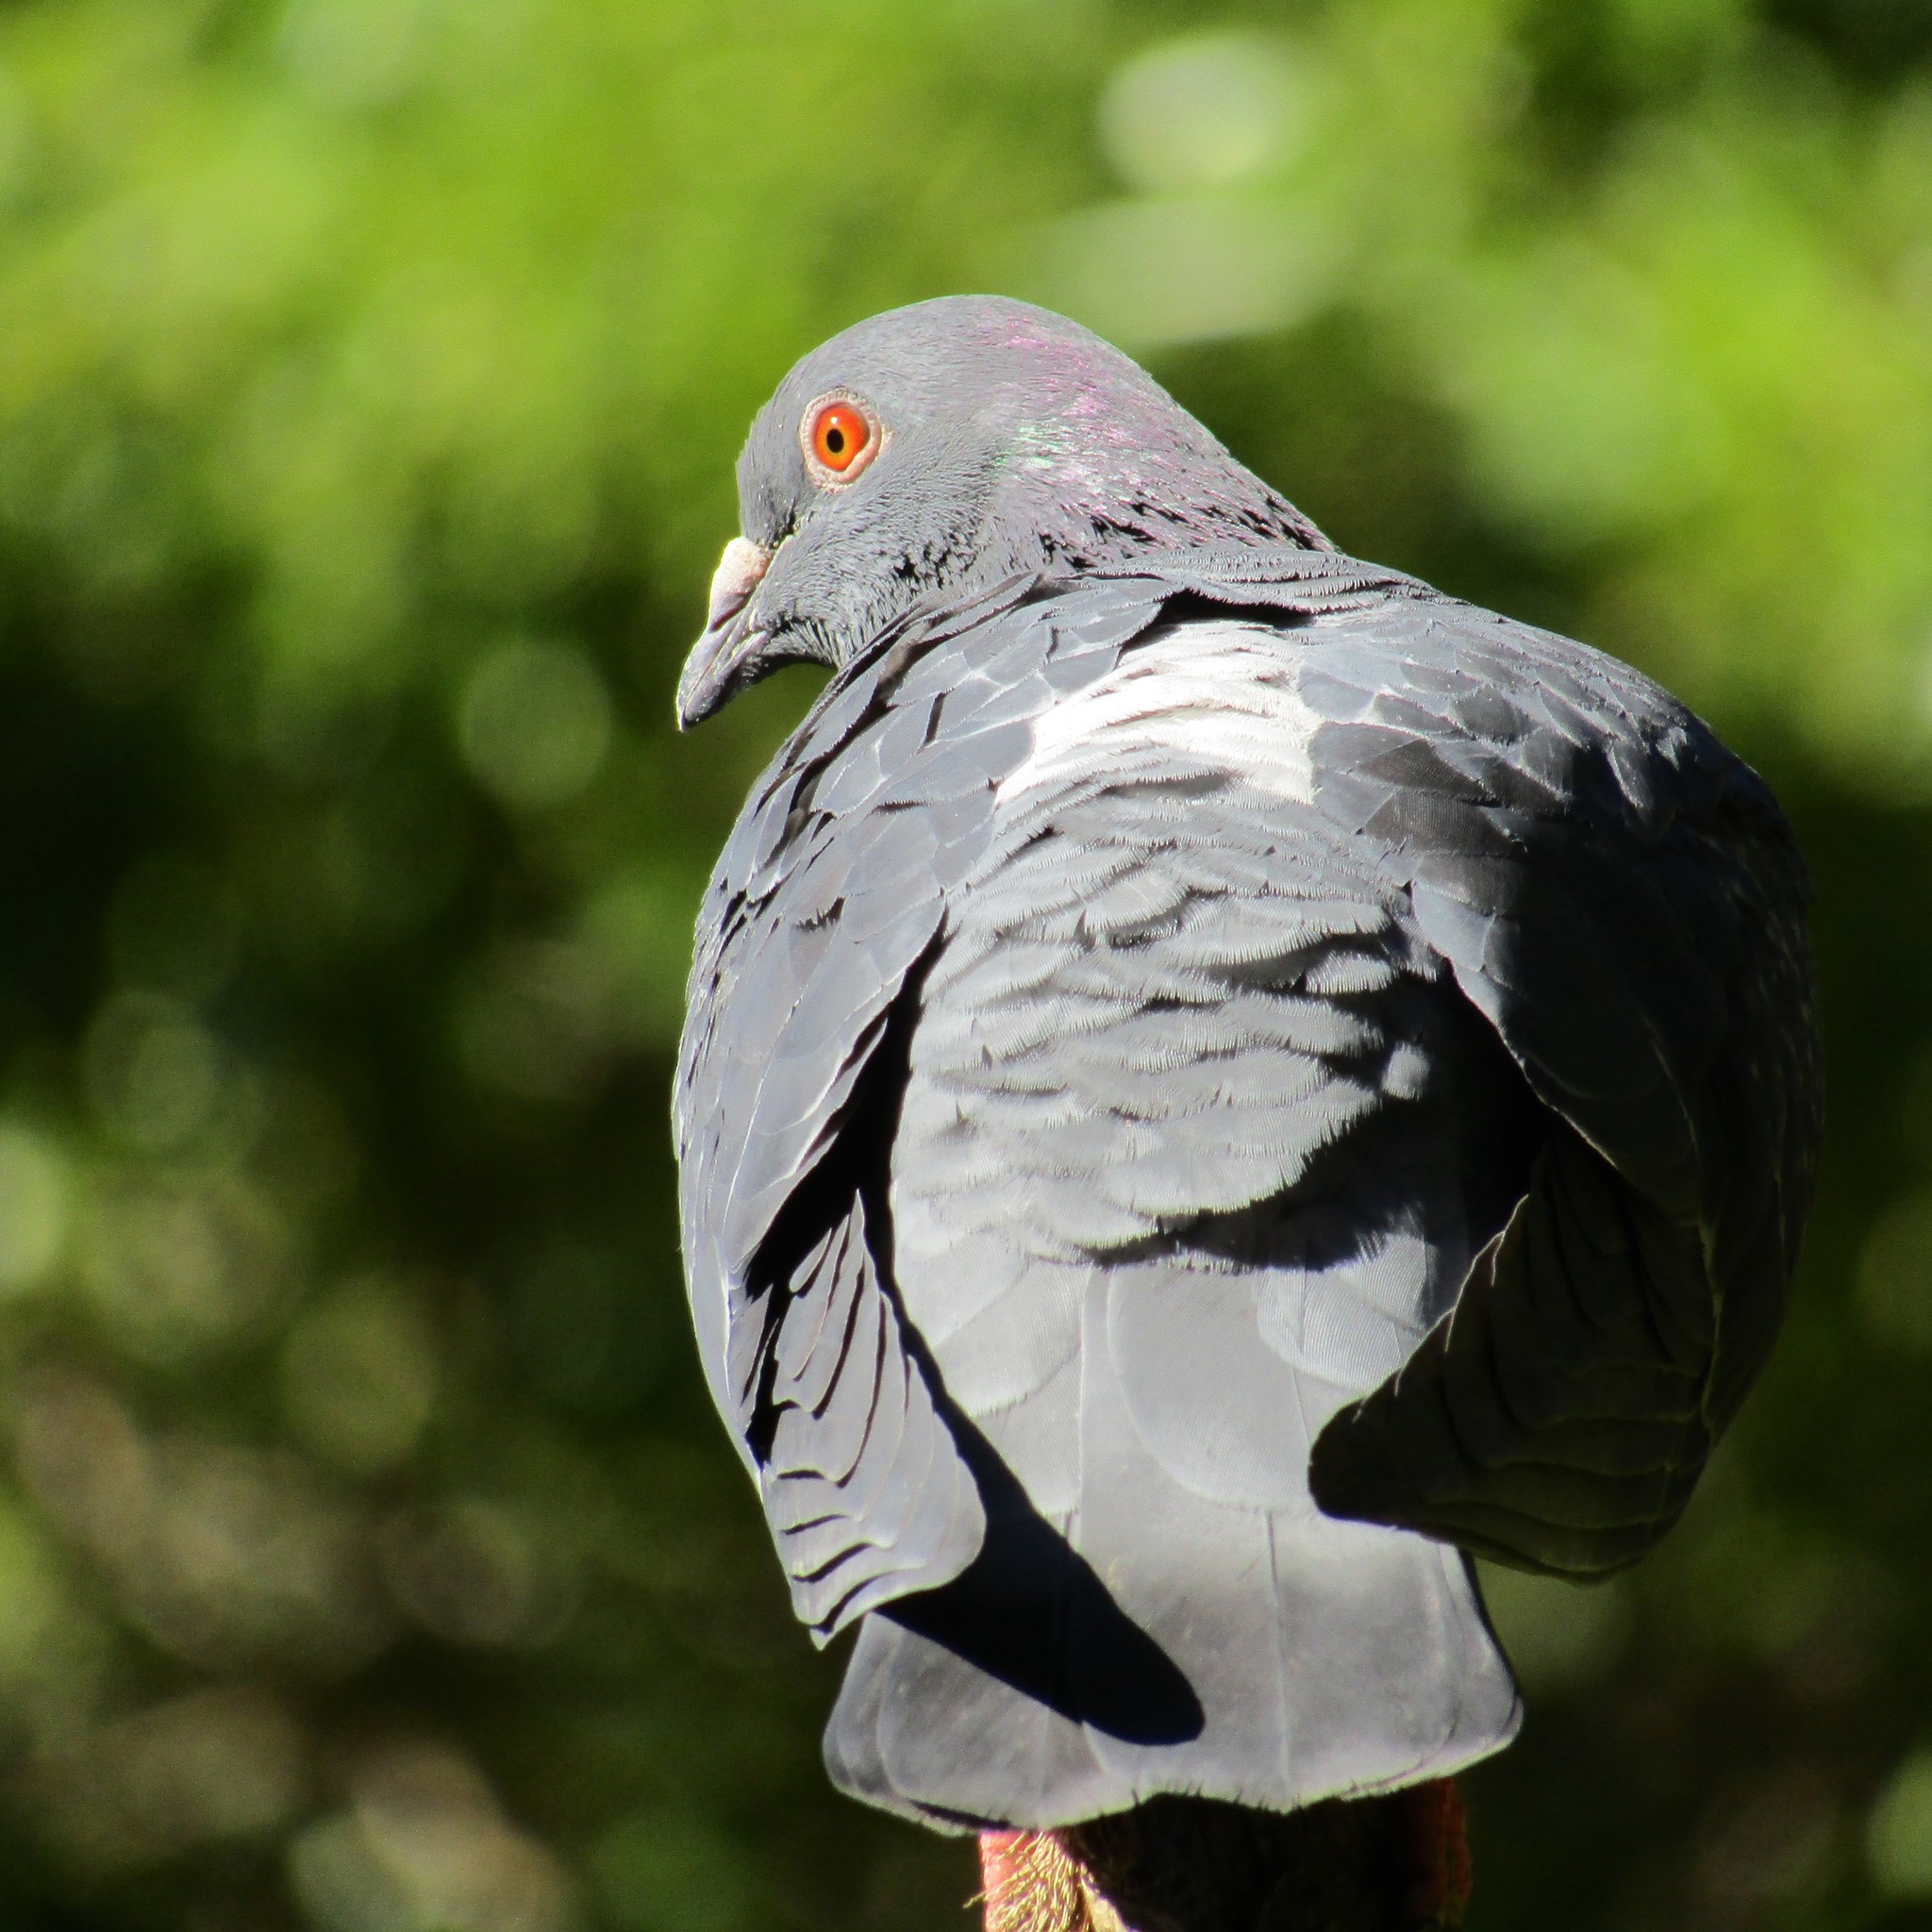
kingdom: Animalia
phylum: Chordata
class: Aves
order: Columbiformes
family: Columbidae
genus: Columba
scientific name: Columba livia
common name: Rock pigeon
